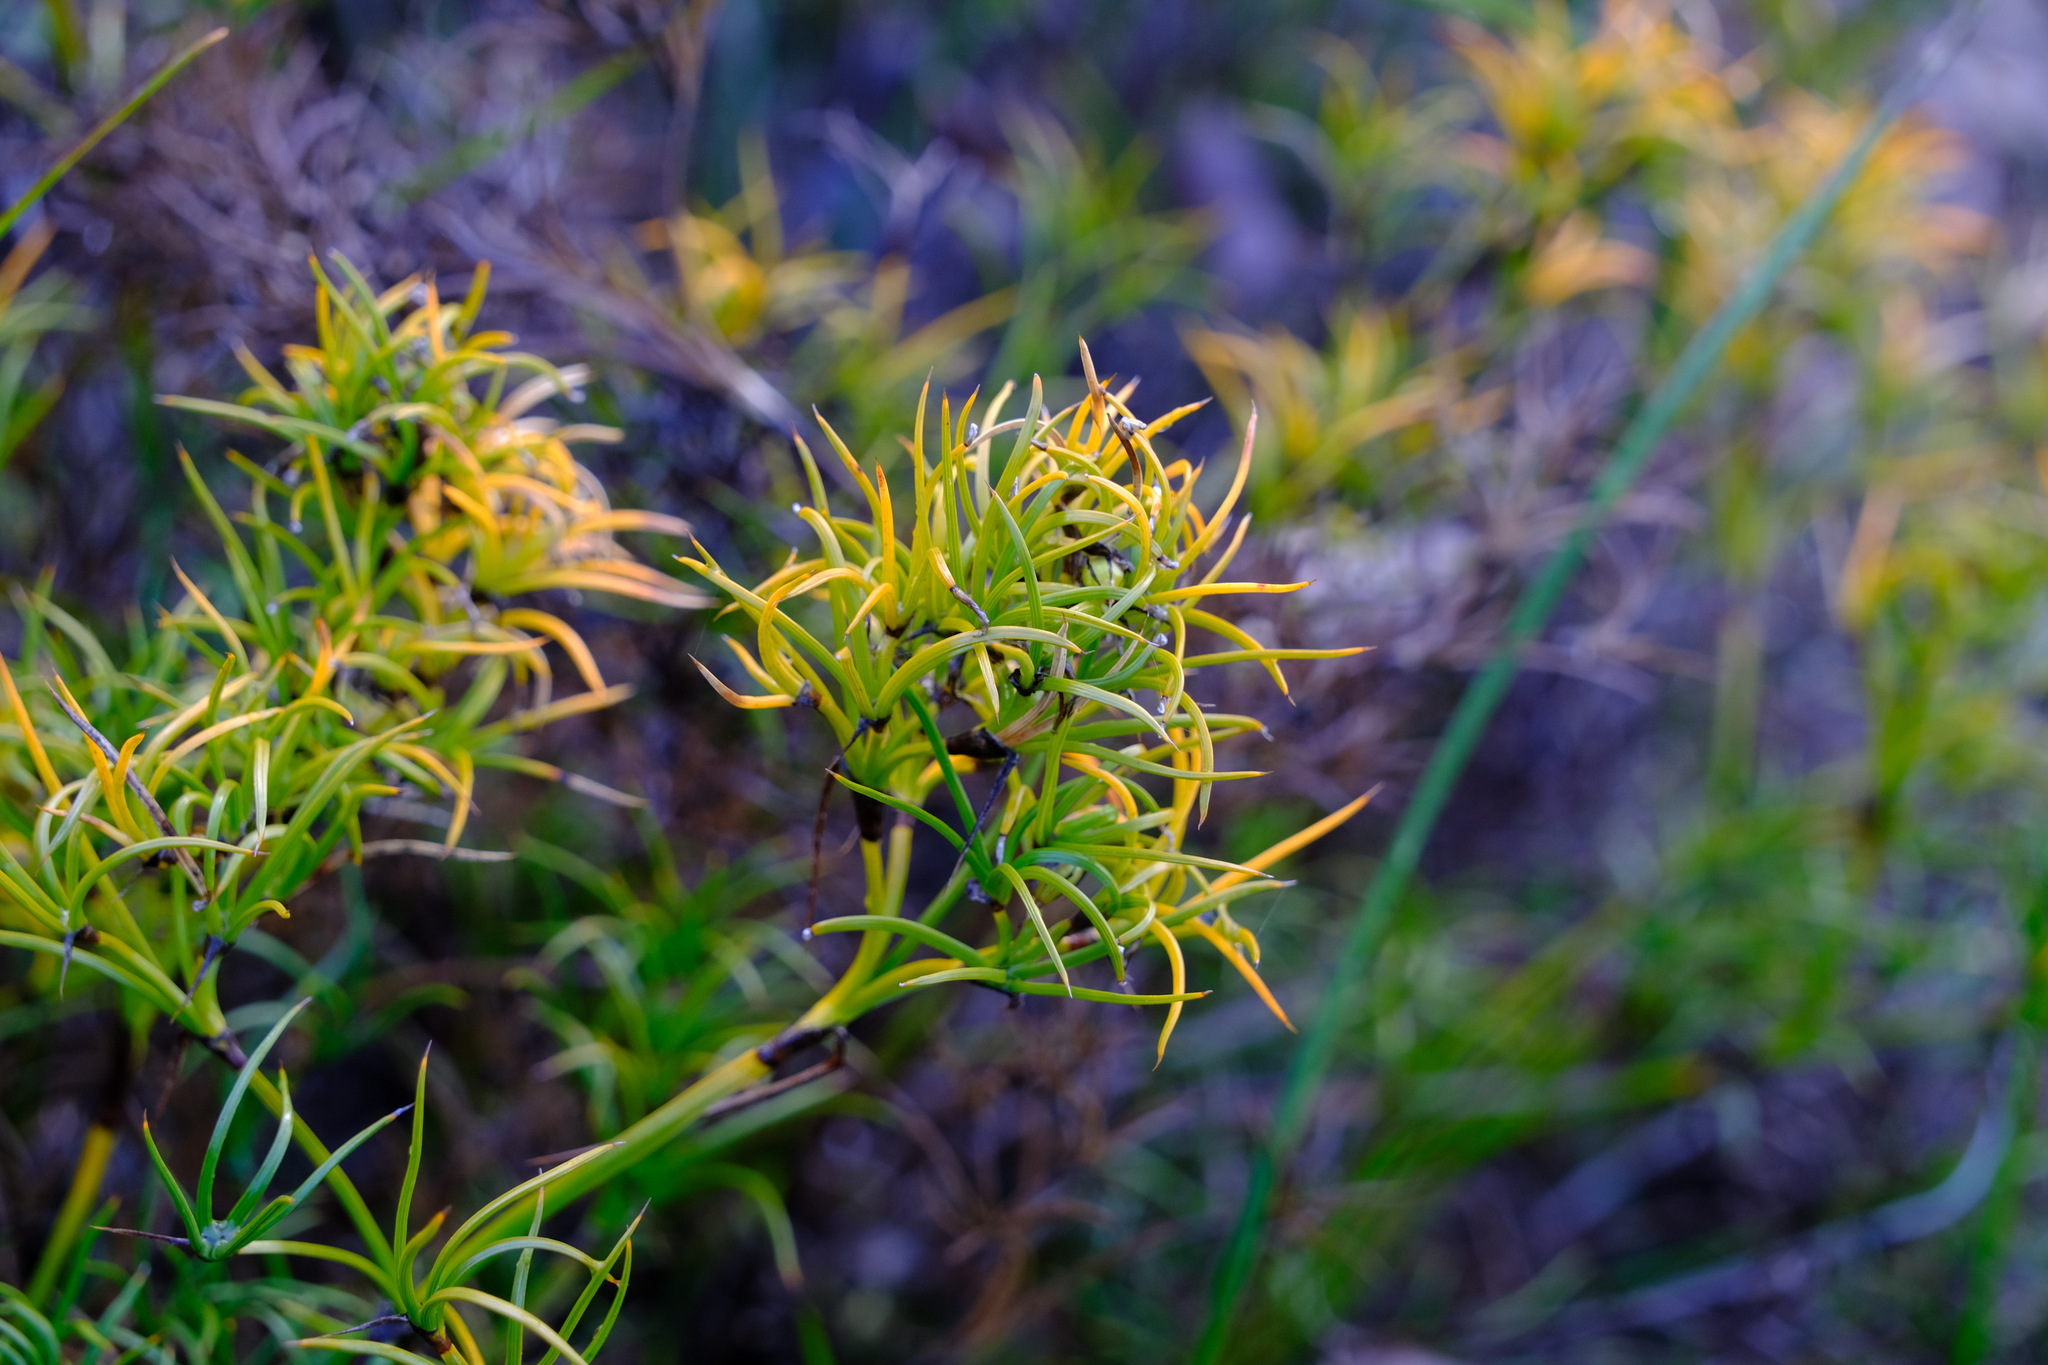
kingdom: Plantae
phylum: Tracheophyta
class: Liliopsida
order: Poales
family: Cyperaceae
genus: Caustis
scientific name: Caustis dioica
